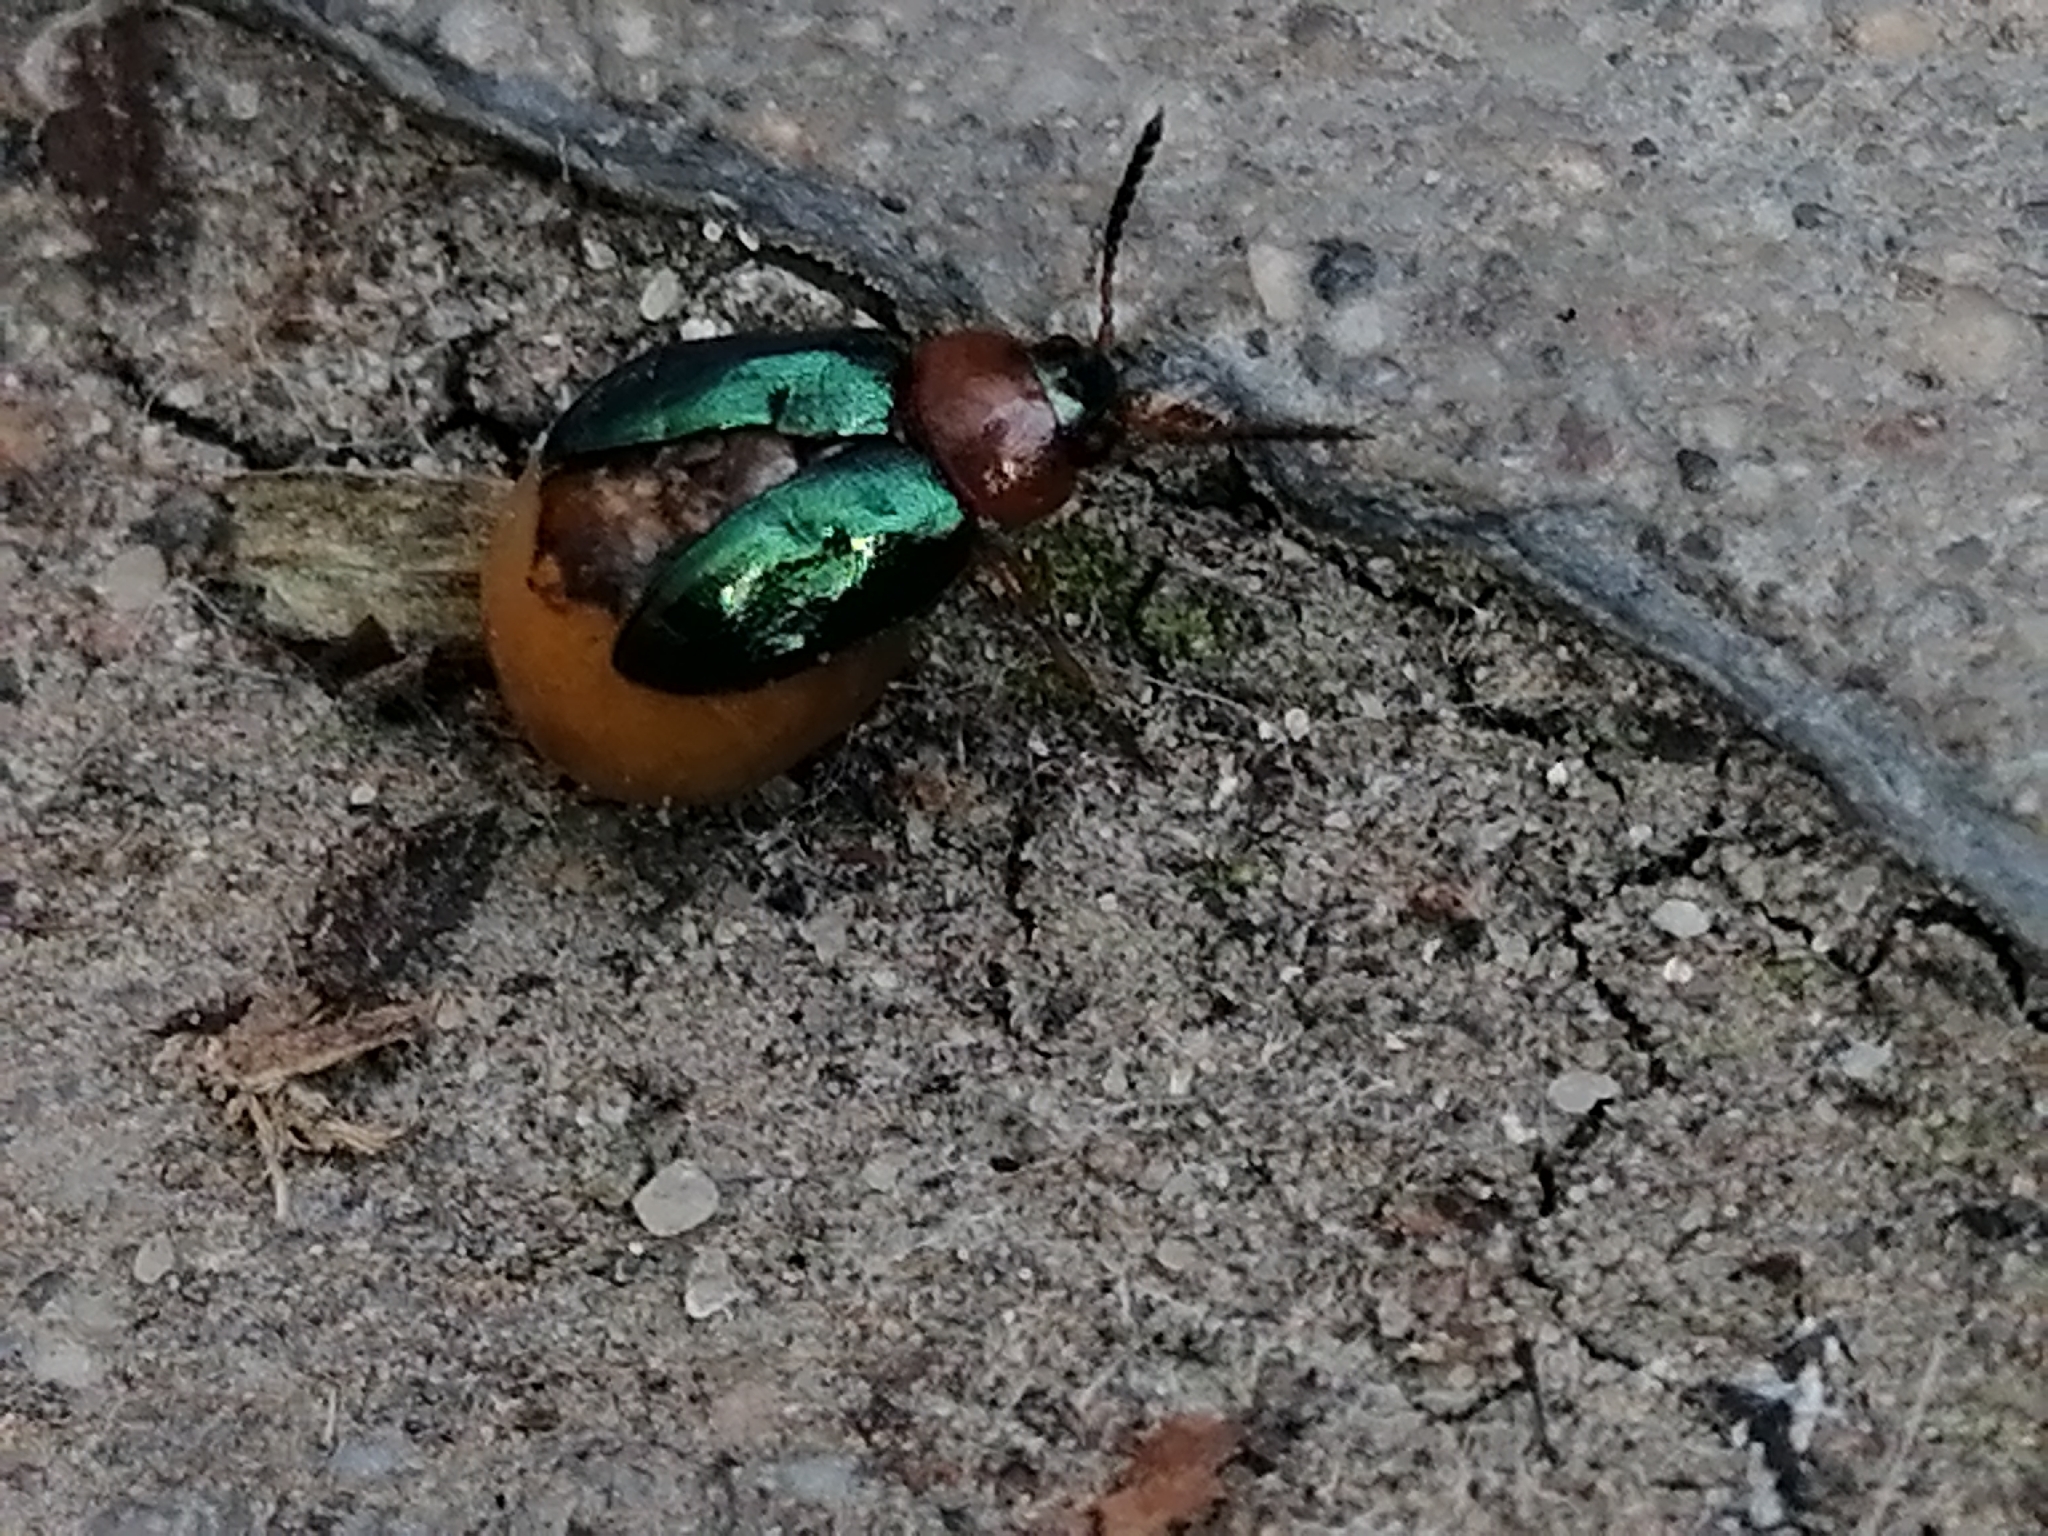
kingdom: Animalia
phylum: Arthropoda
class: Insecta
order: Coleoptera
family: Chrysomelidae
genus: Gastrophysa
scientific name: Gastrophysa polygoni
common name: Knotweed leaf beetle
